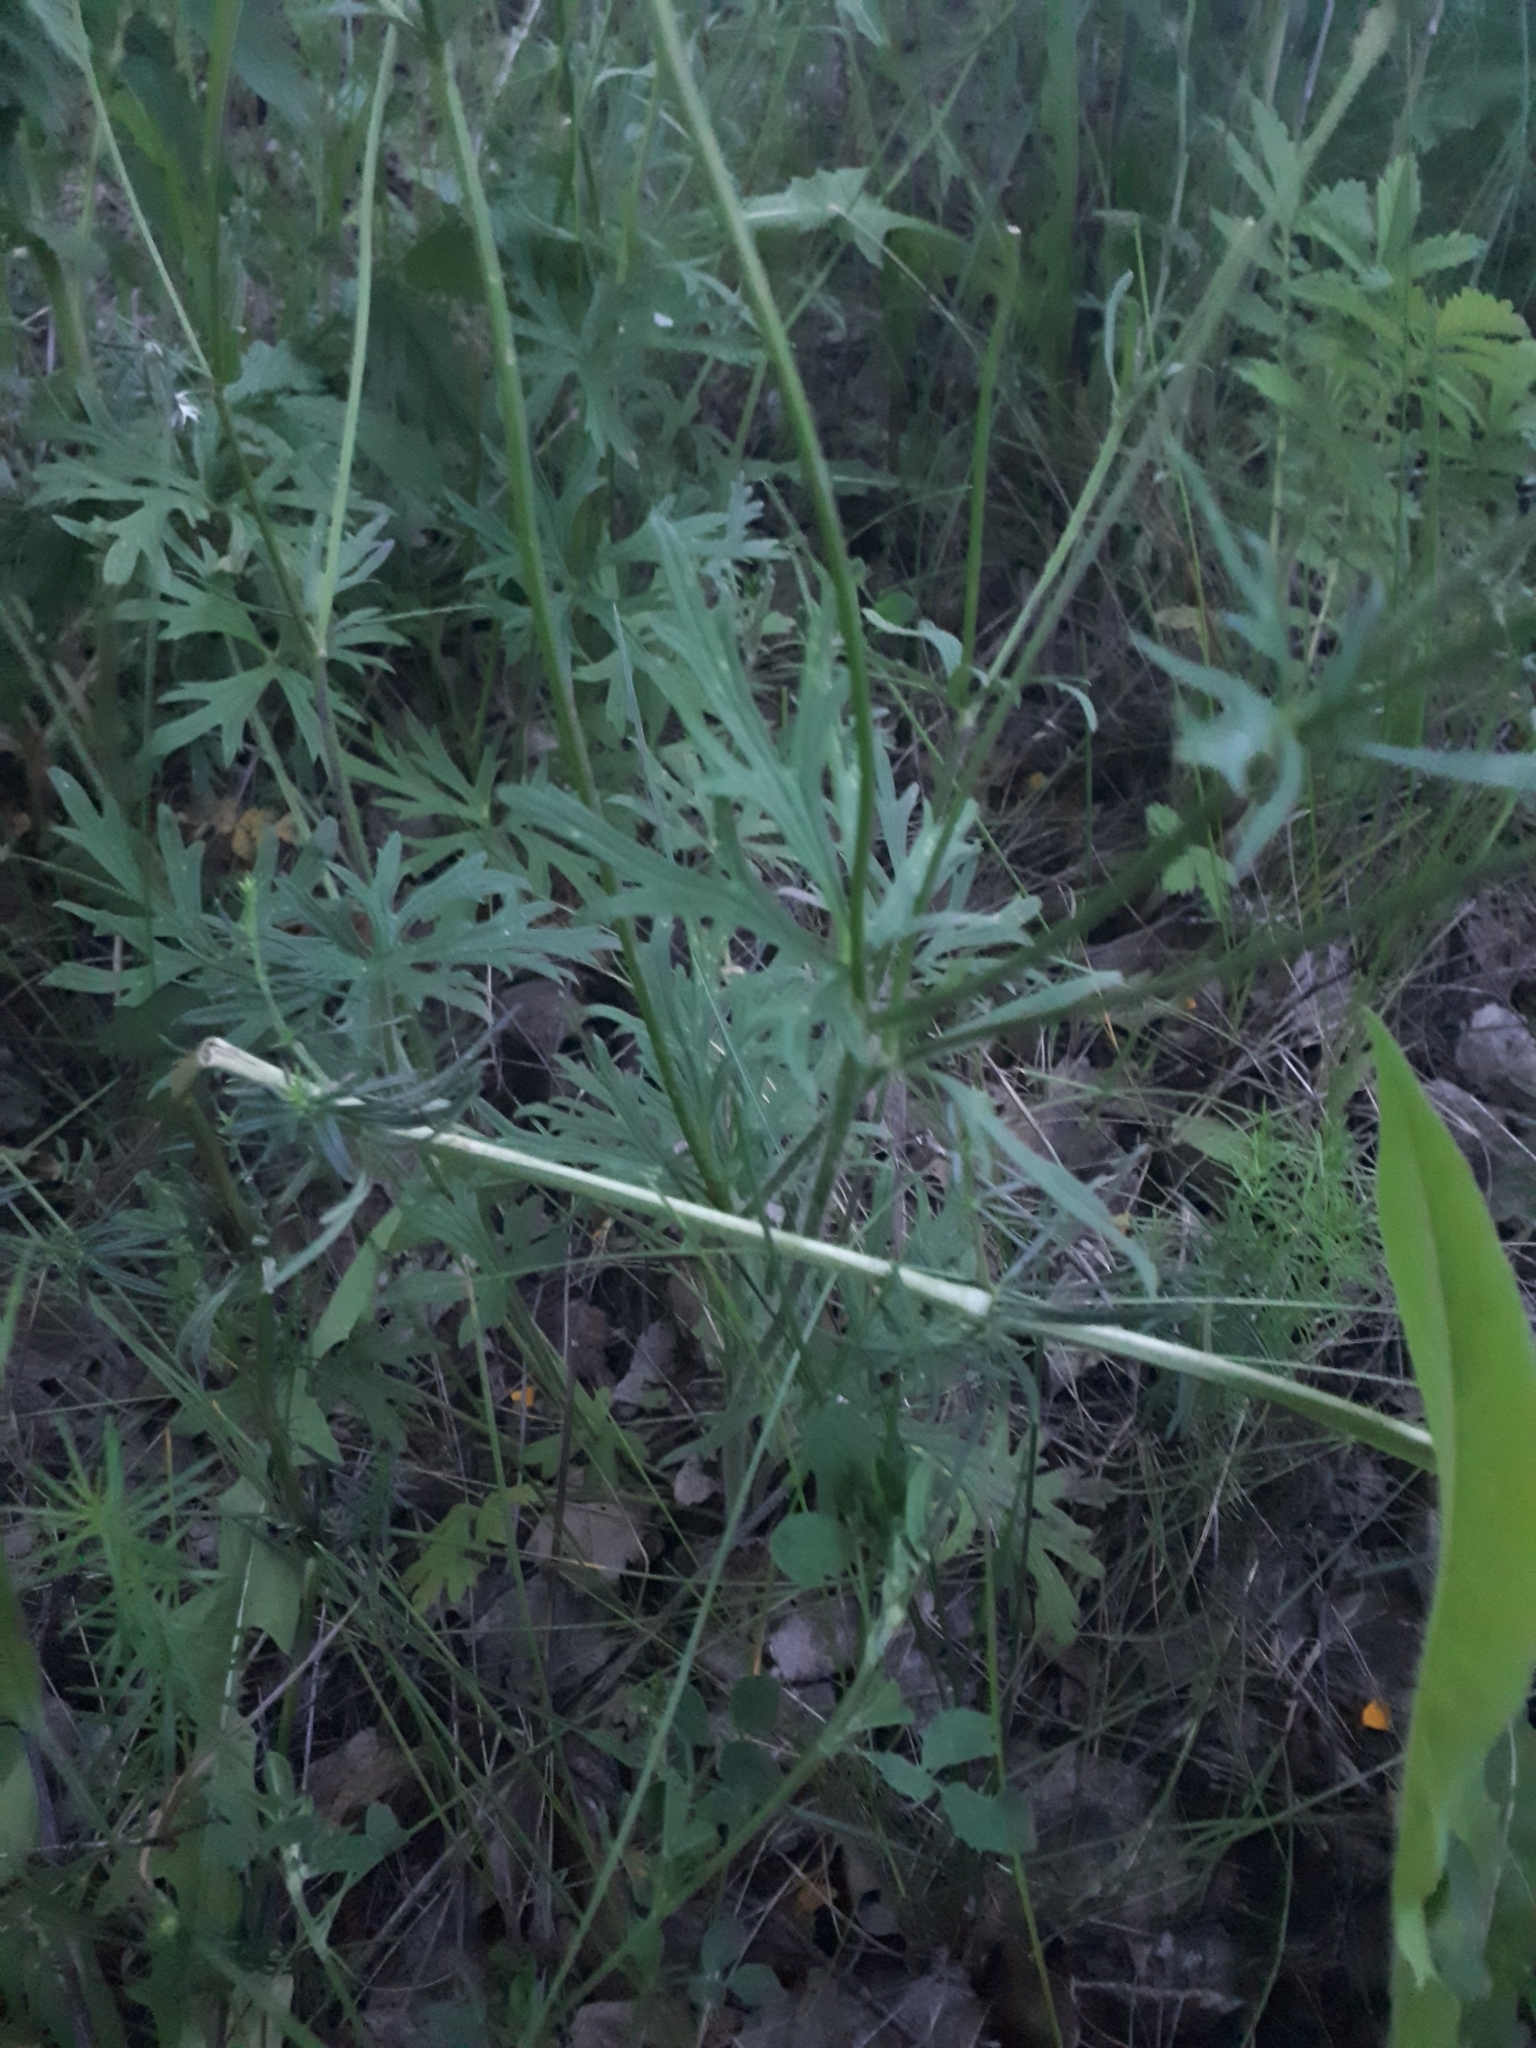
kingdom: Plantae
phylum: Tracheophyta
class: Magnoliopsida
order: Ranunculales
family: Ranunculaceae
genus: Ranunculus
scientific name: Ranunculus polyanthemos
